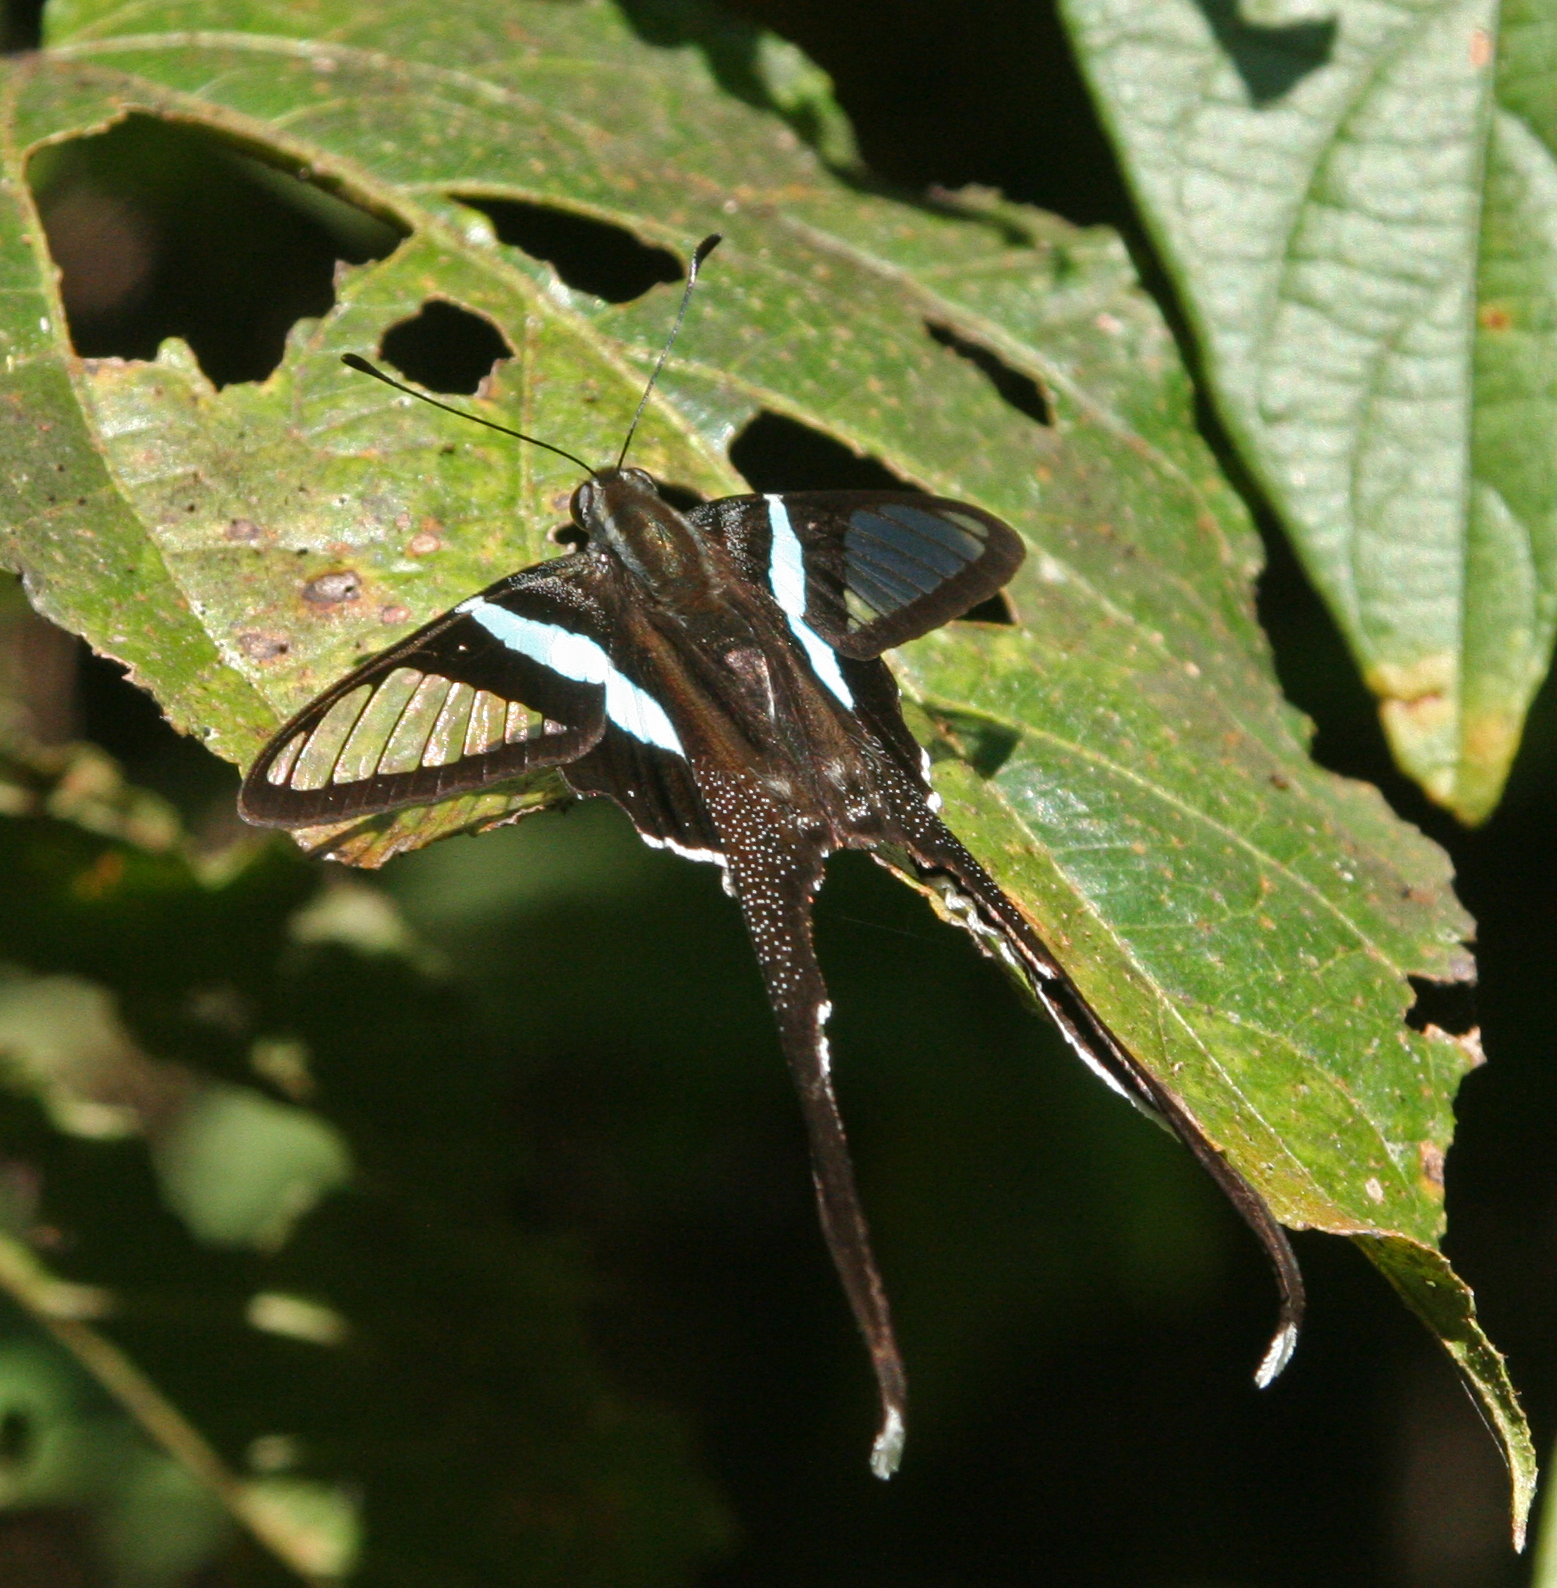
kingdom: Animalia
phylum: Arthropoda
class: Insecta
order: Lepidoptera
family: Papilionidae
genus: Lamproptera
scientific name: Lamproptera meges
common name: Green dragontail
